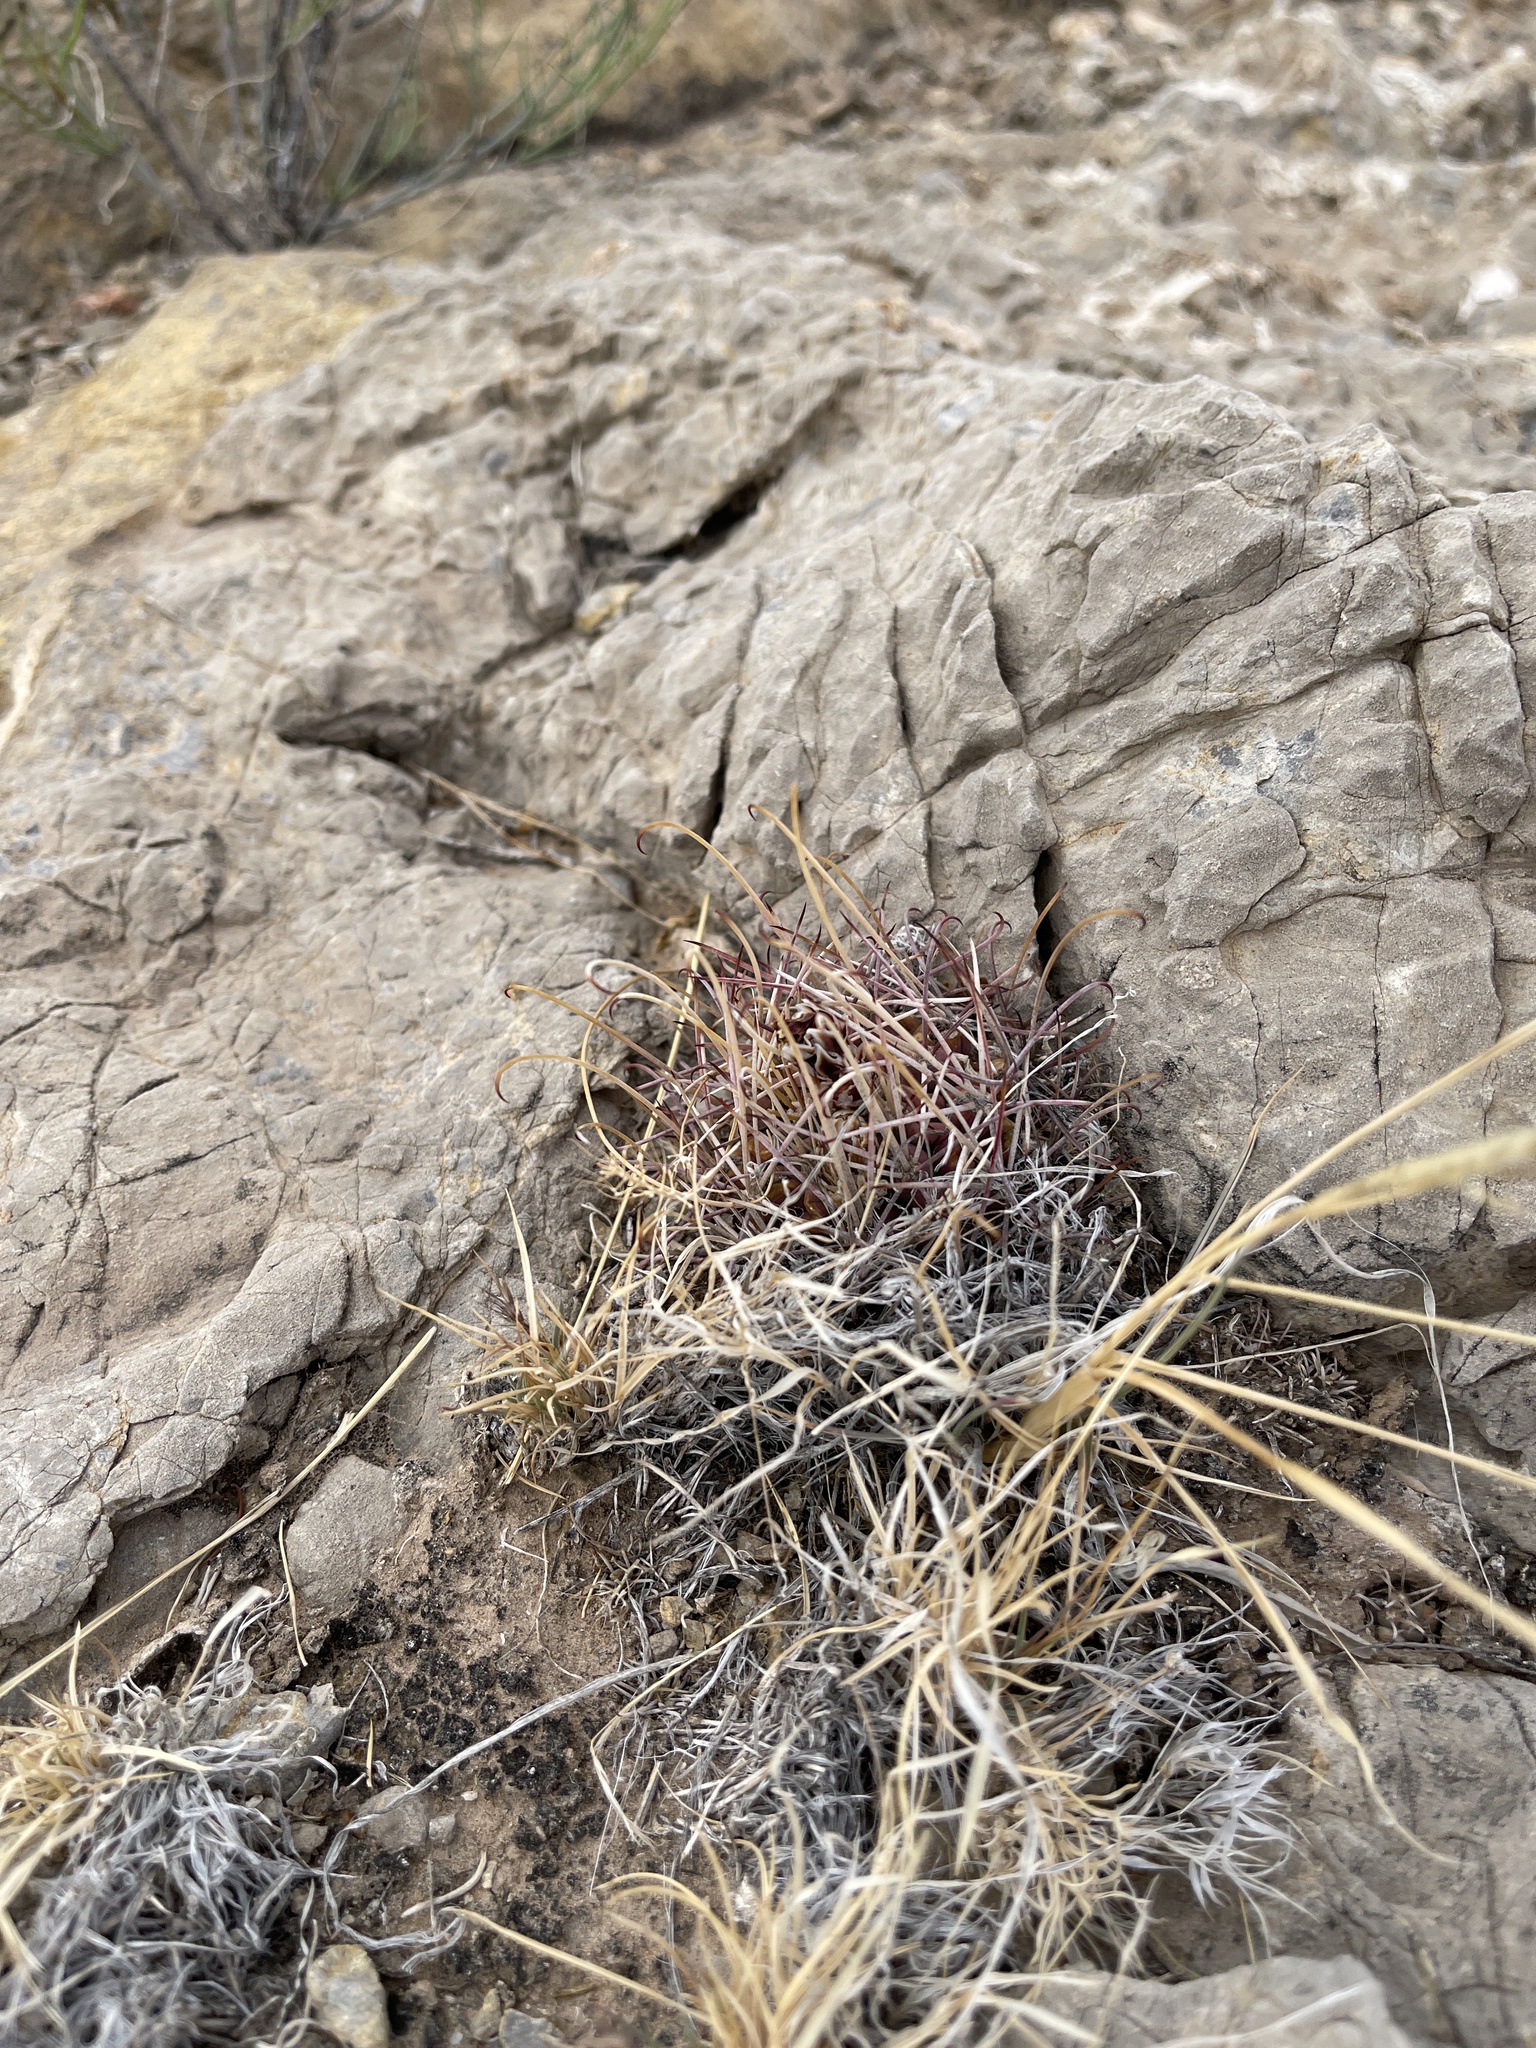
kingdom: Plantae
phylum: Tracheophyta
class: Magnoliopsida
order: Caryophyllales
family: Cactaceae
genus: Ferocactus
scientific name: Ferocactus uncinatus
